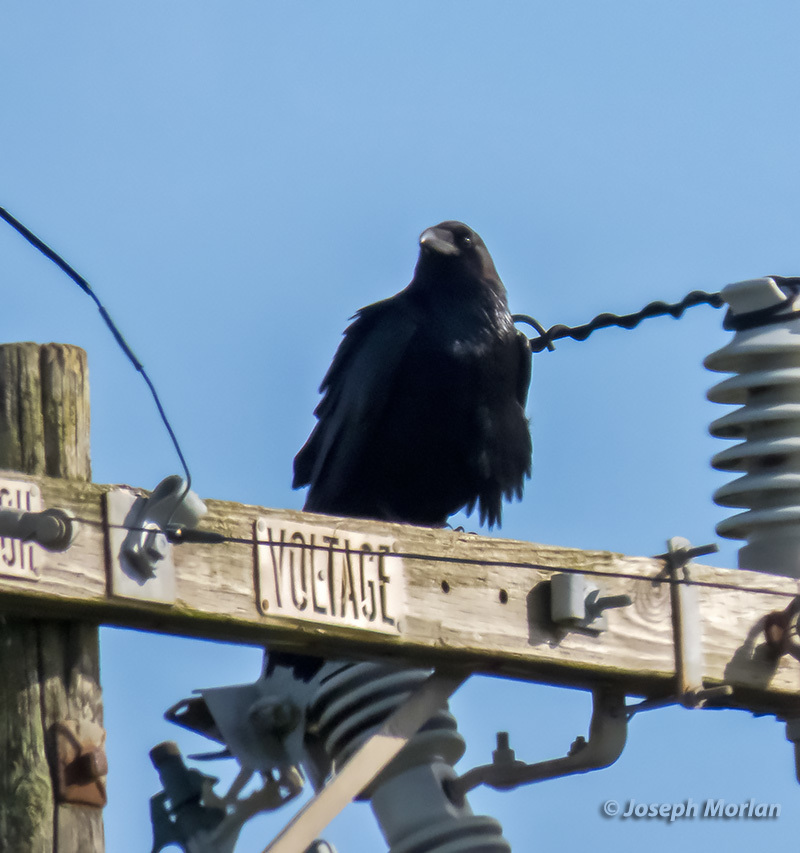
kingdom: Animalia
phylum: Chordata
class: Aves
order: Passeriformes
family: Corvidae
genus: Corvus
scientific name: Corvus corax
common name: Common raven
